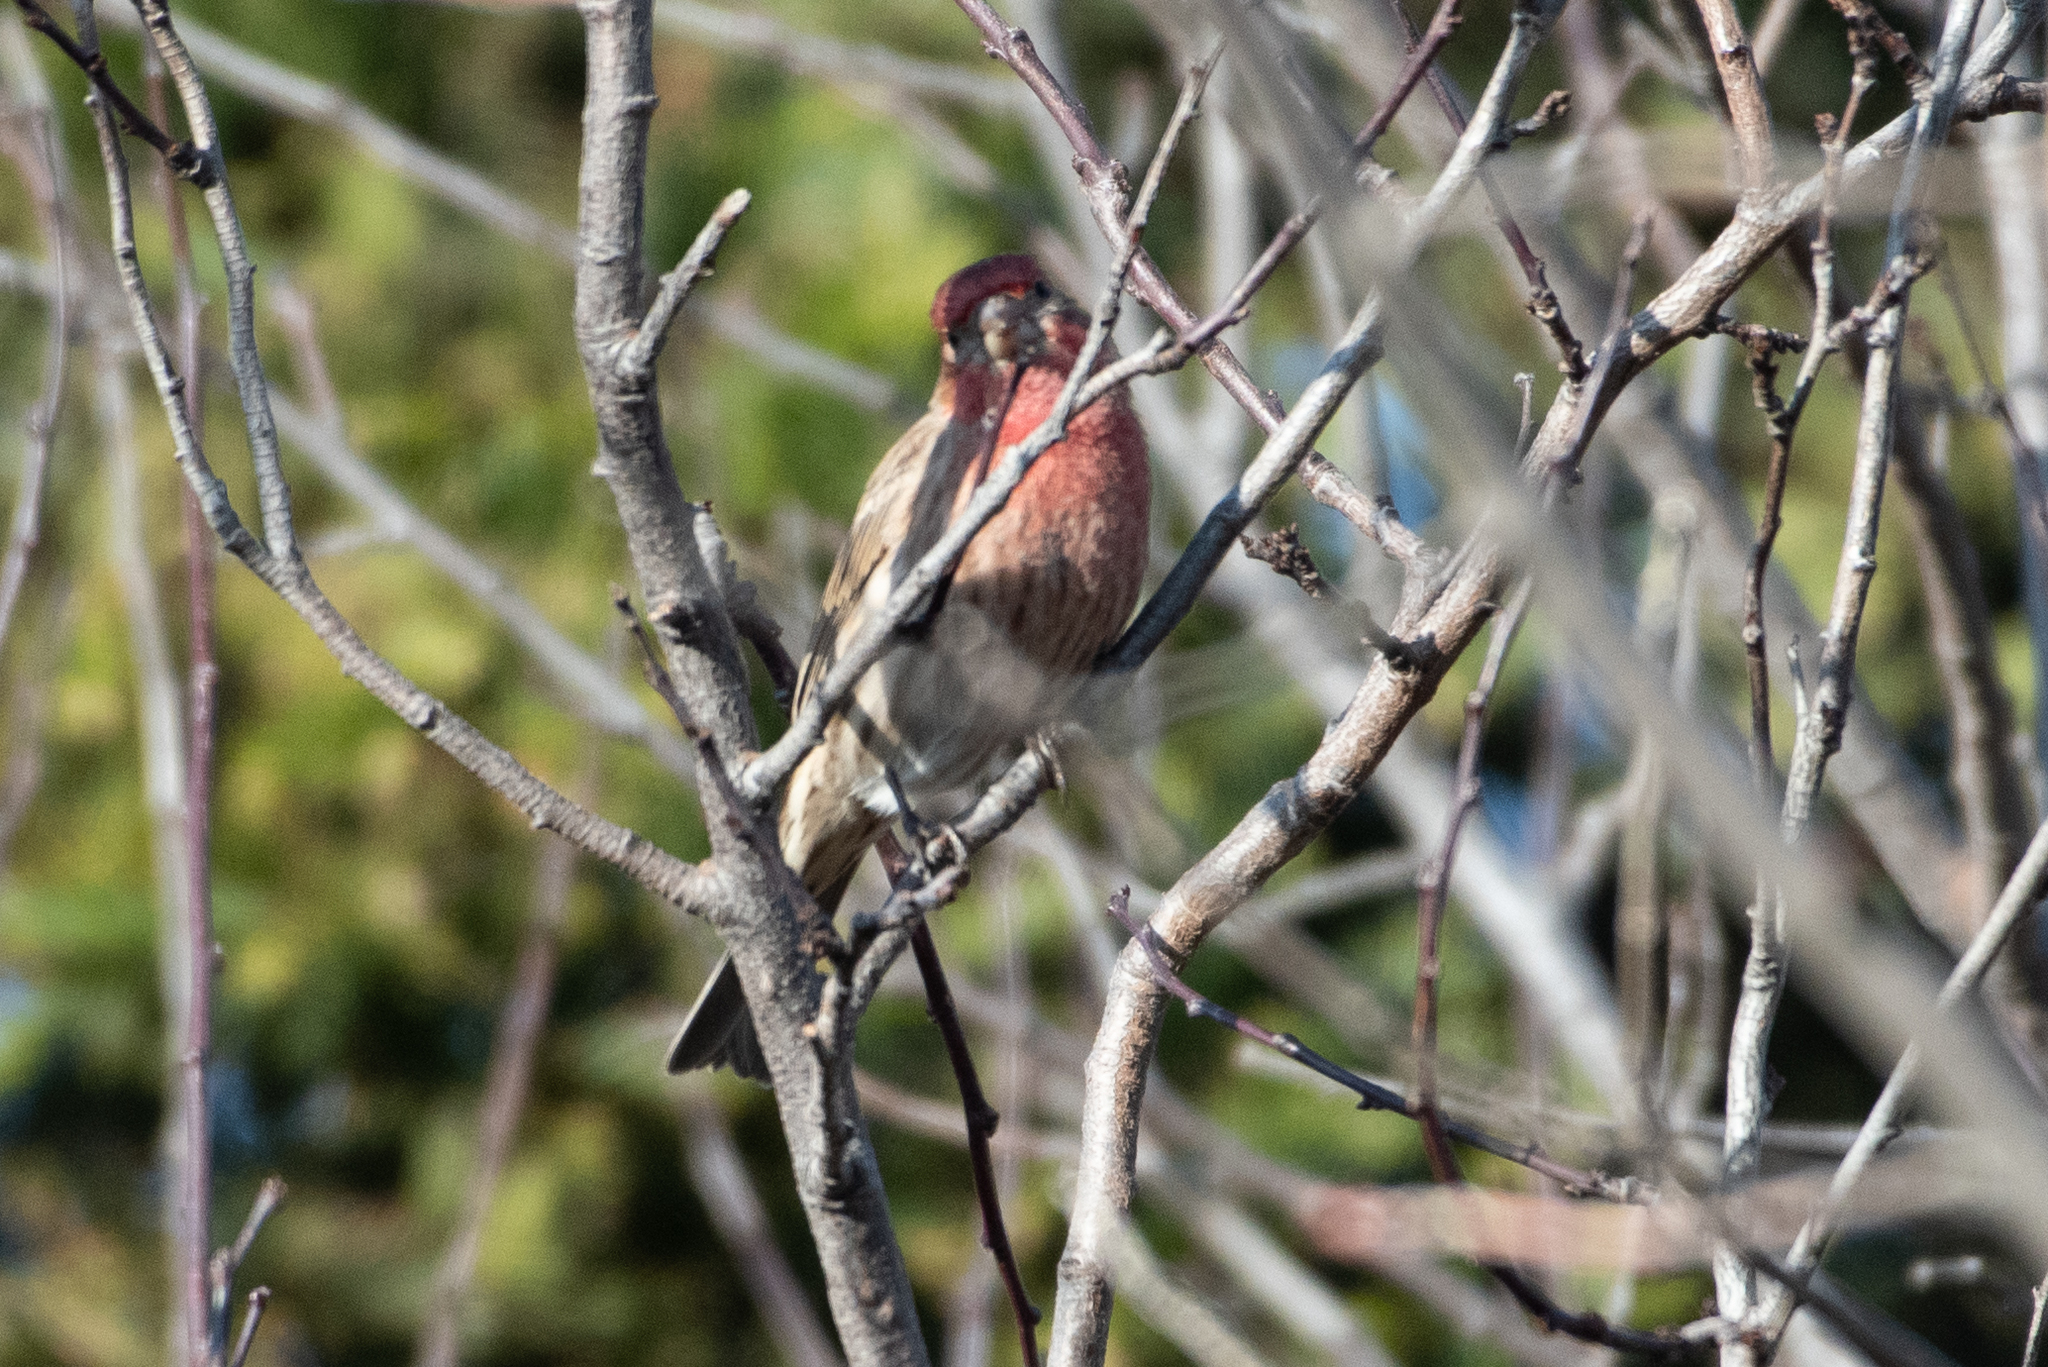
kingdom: Animalia
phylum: Chordata
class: Aves
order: Passeriformes
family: Fringillidae
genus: Haemorhous
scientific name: Haemorhous mexicanus
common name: House finch
